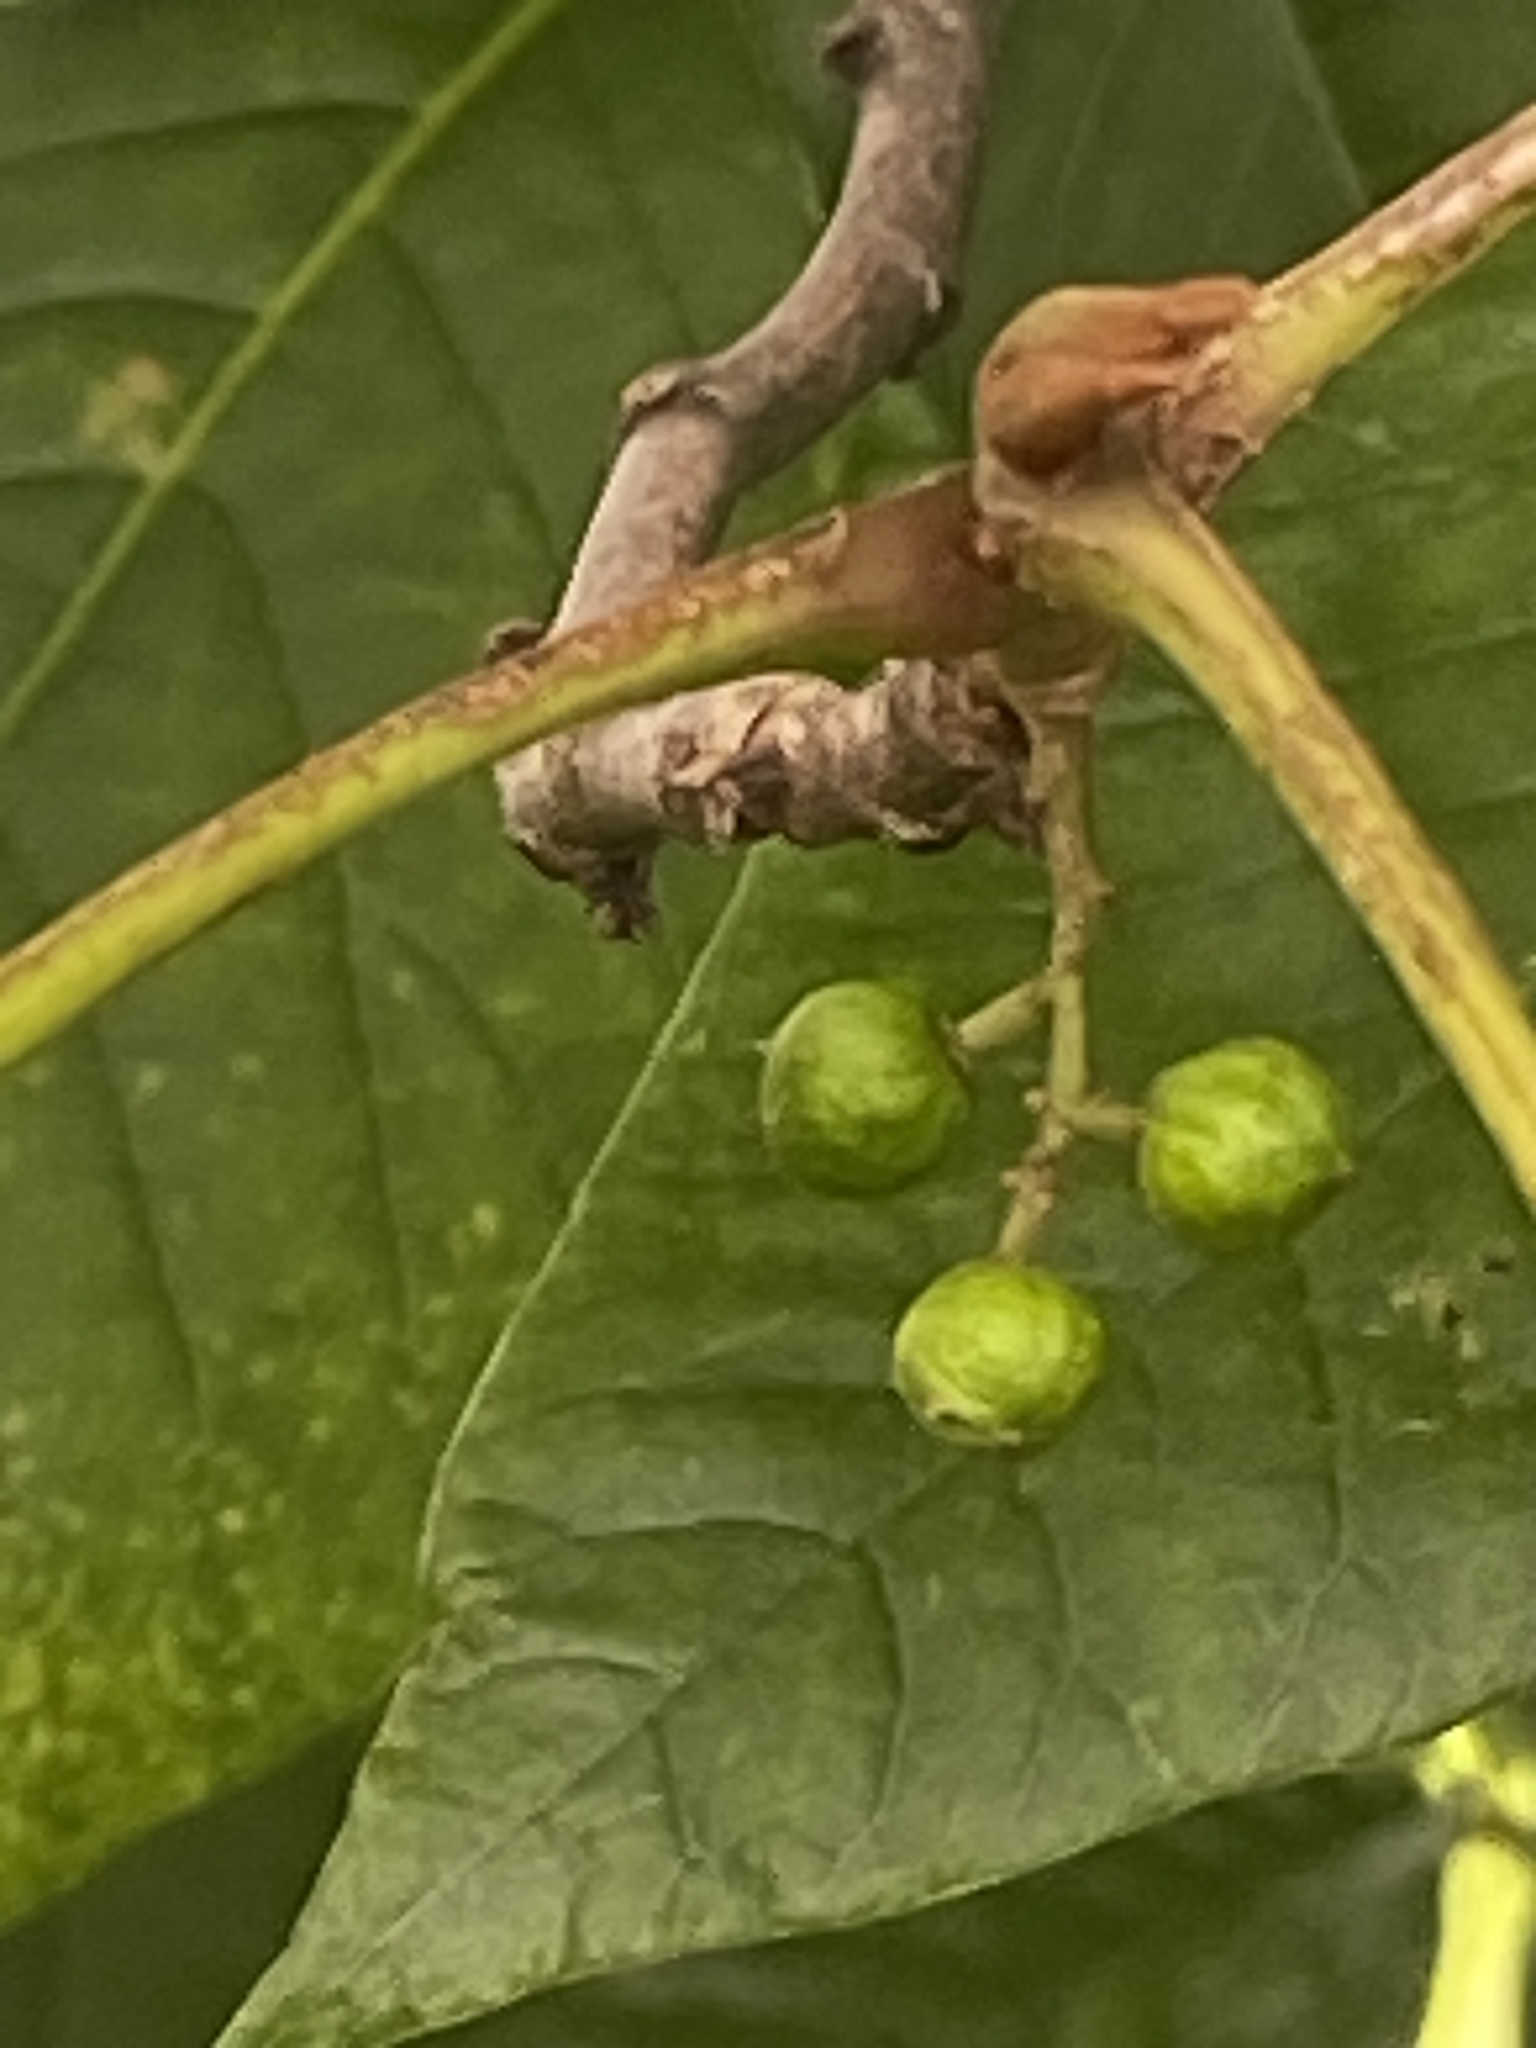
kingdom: Plantae
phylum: Tracheophyta
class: Magnoliopsida
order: Sapindales
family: Anacardiaceae
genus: Toxicodendron
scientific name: Toxicodendron radicans
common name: Poison ivy
